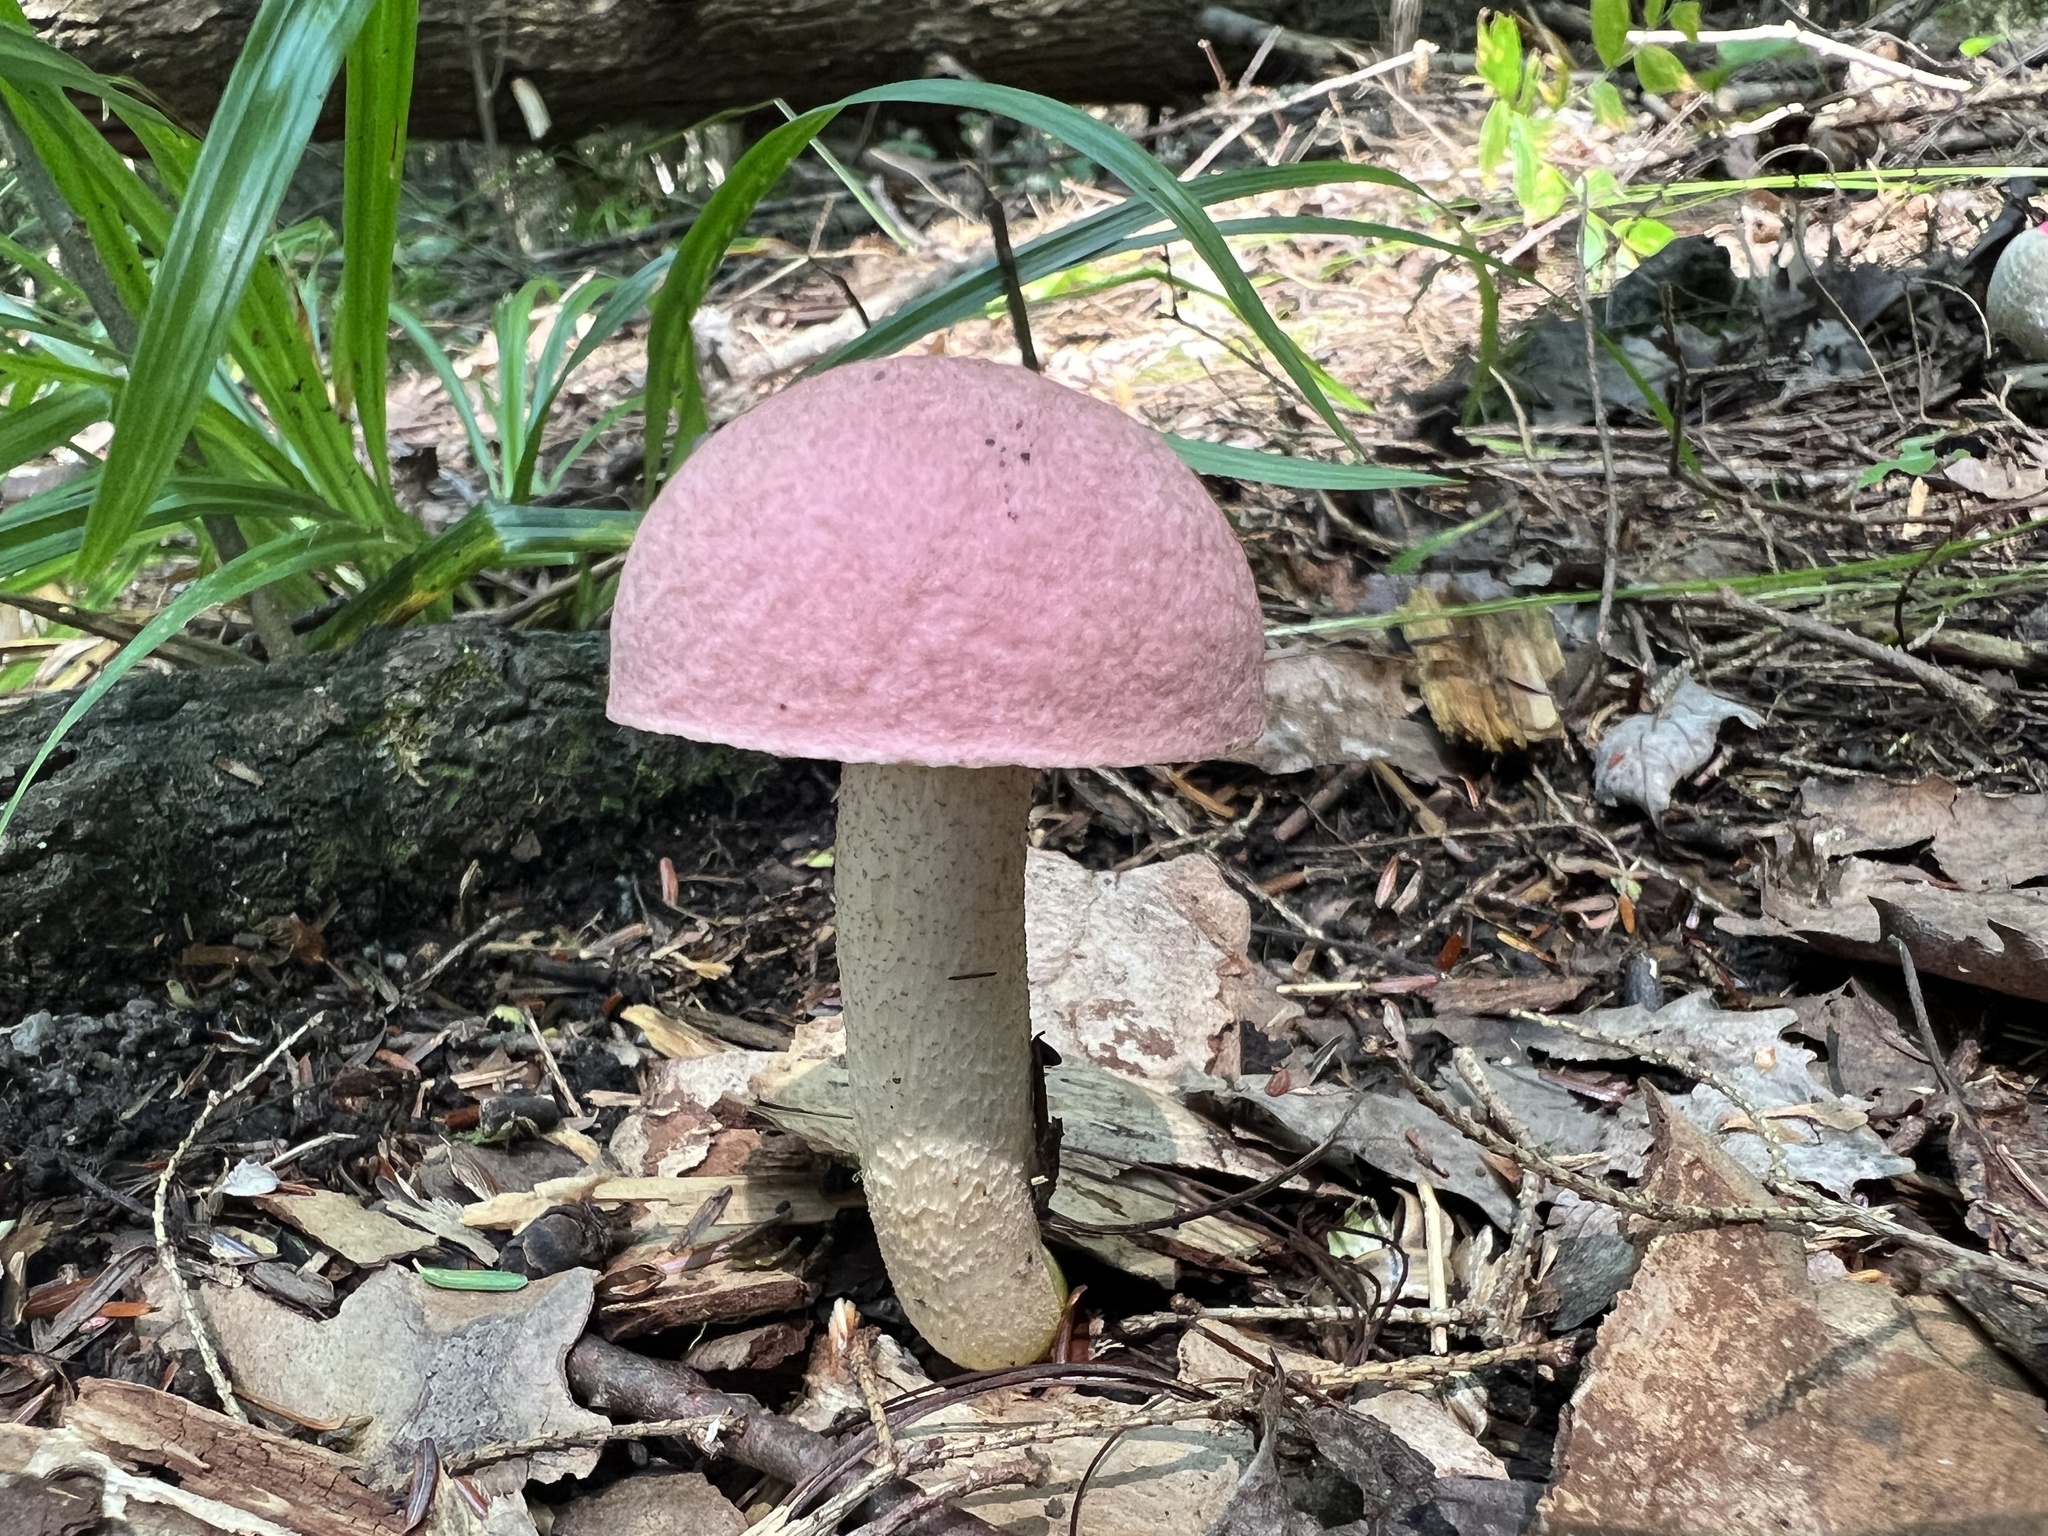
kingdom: Fungi
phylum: Basidiomycota
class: Agaricomycetes
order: Boletales
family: Boletaceae
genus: Harrya
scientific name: Harrya chromipes
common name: Chrome-footed bolete
